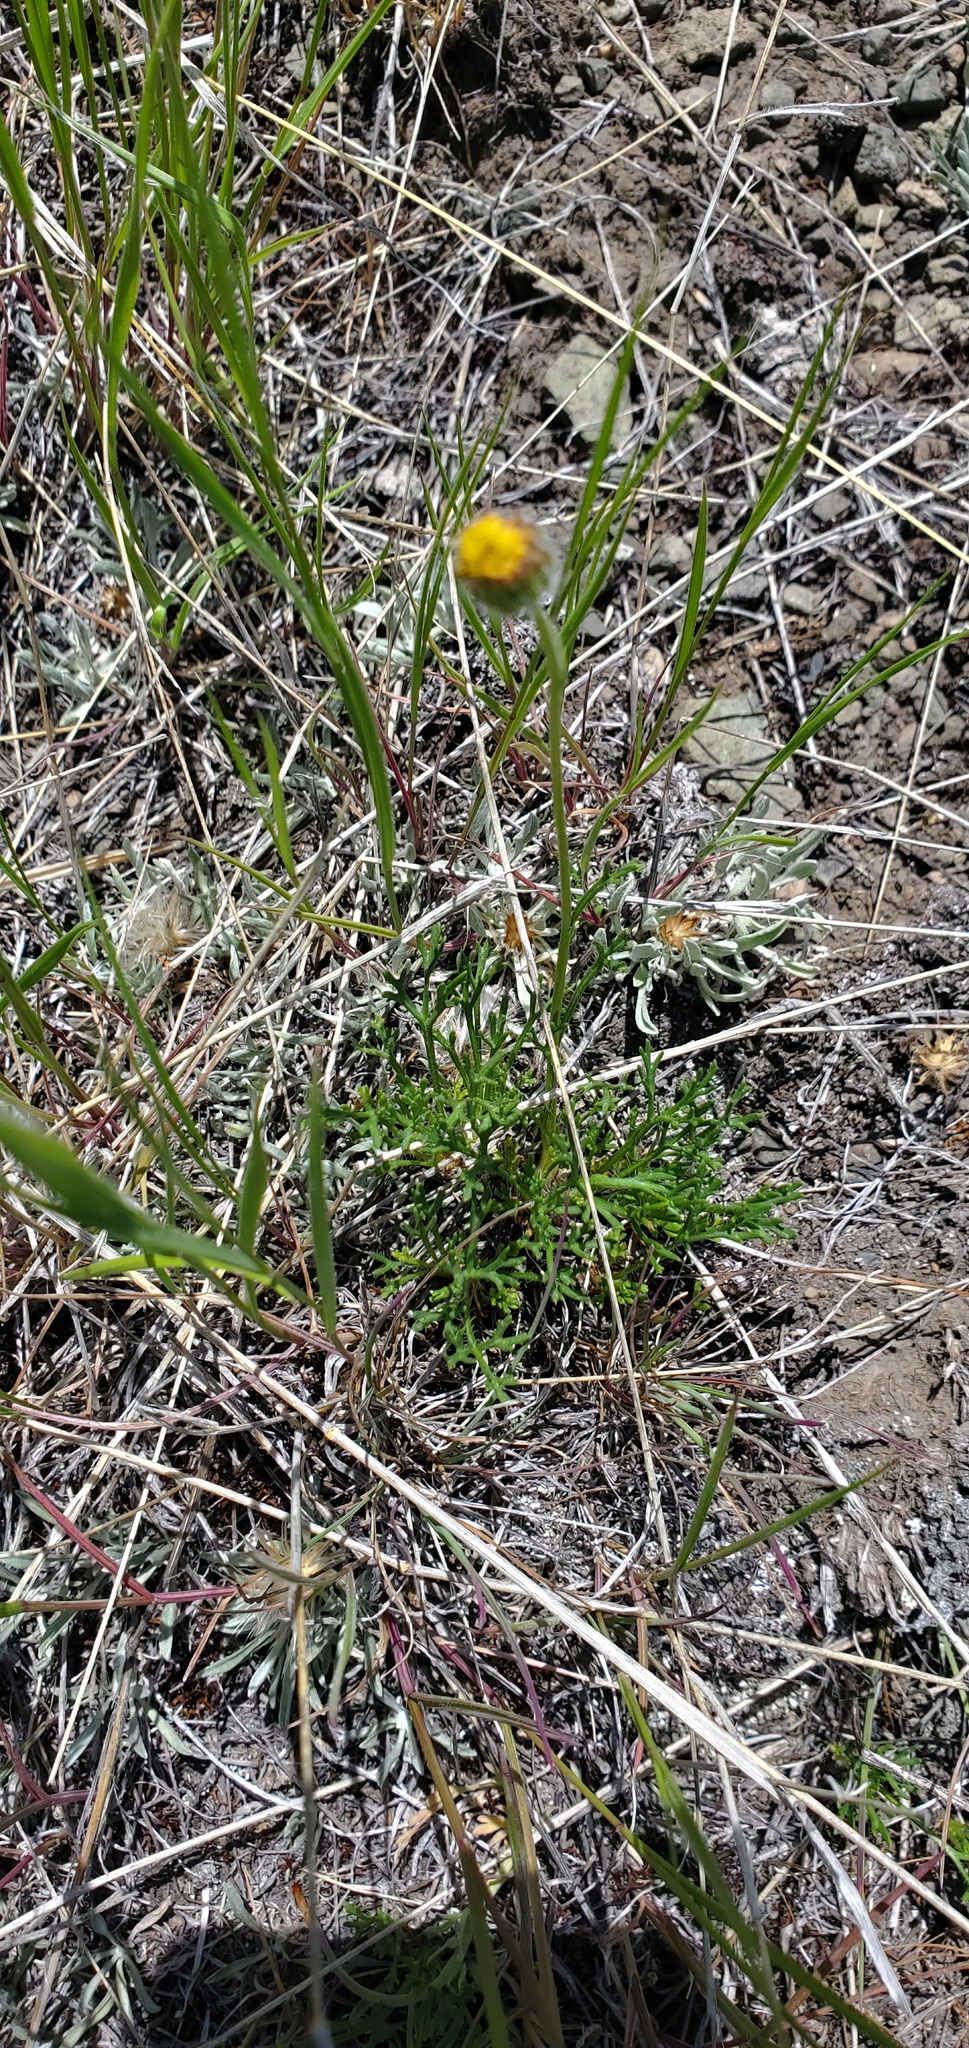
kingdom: Plantae
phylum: Tracheophyta
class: Magnoliopsida
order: Asterales
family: Asteraceae
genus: Erigeron
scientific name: Erigeron compositus
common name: Dwarf mountain fleabane
